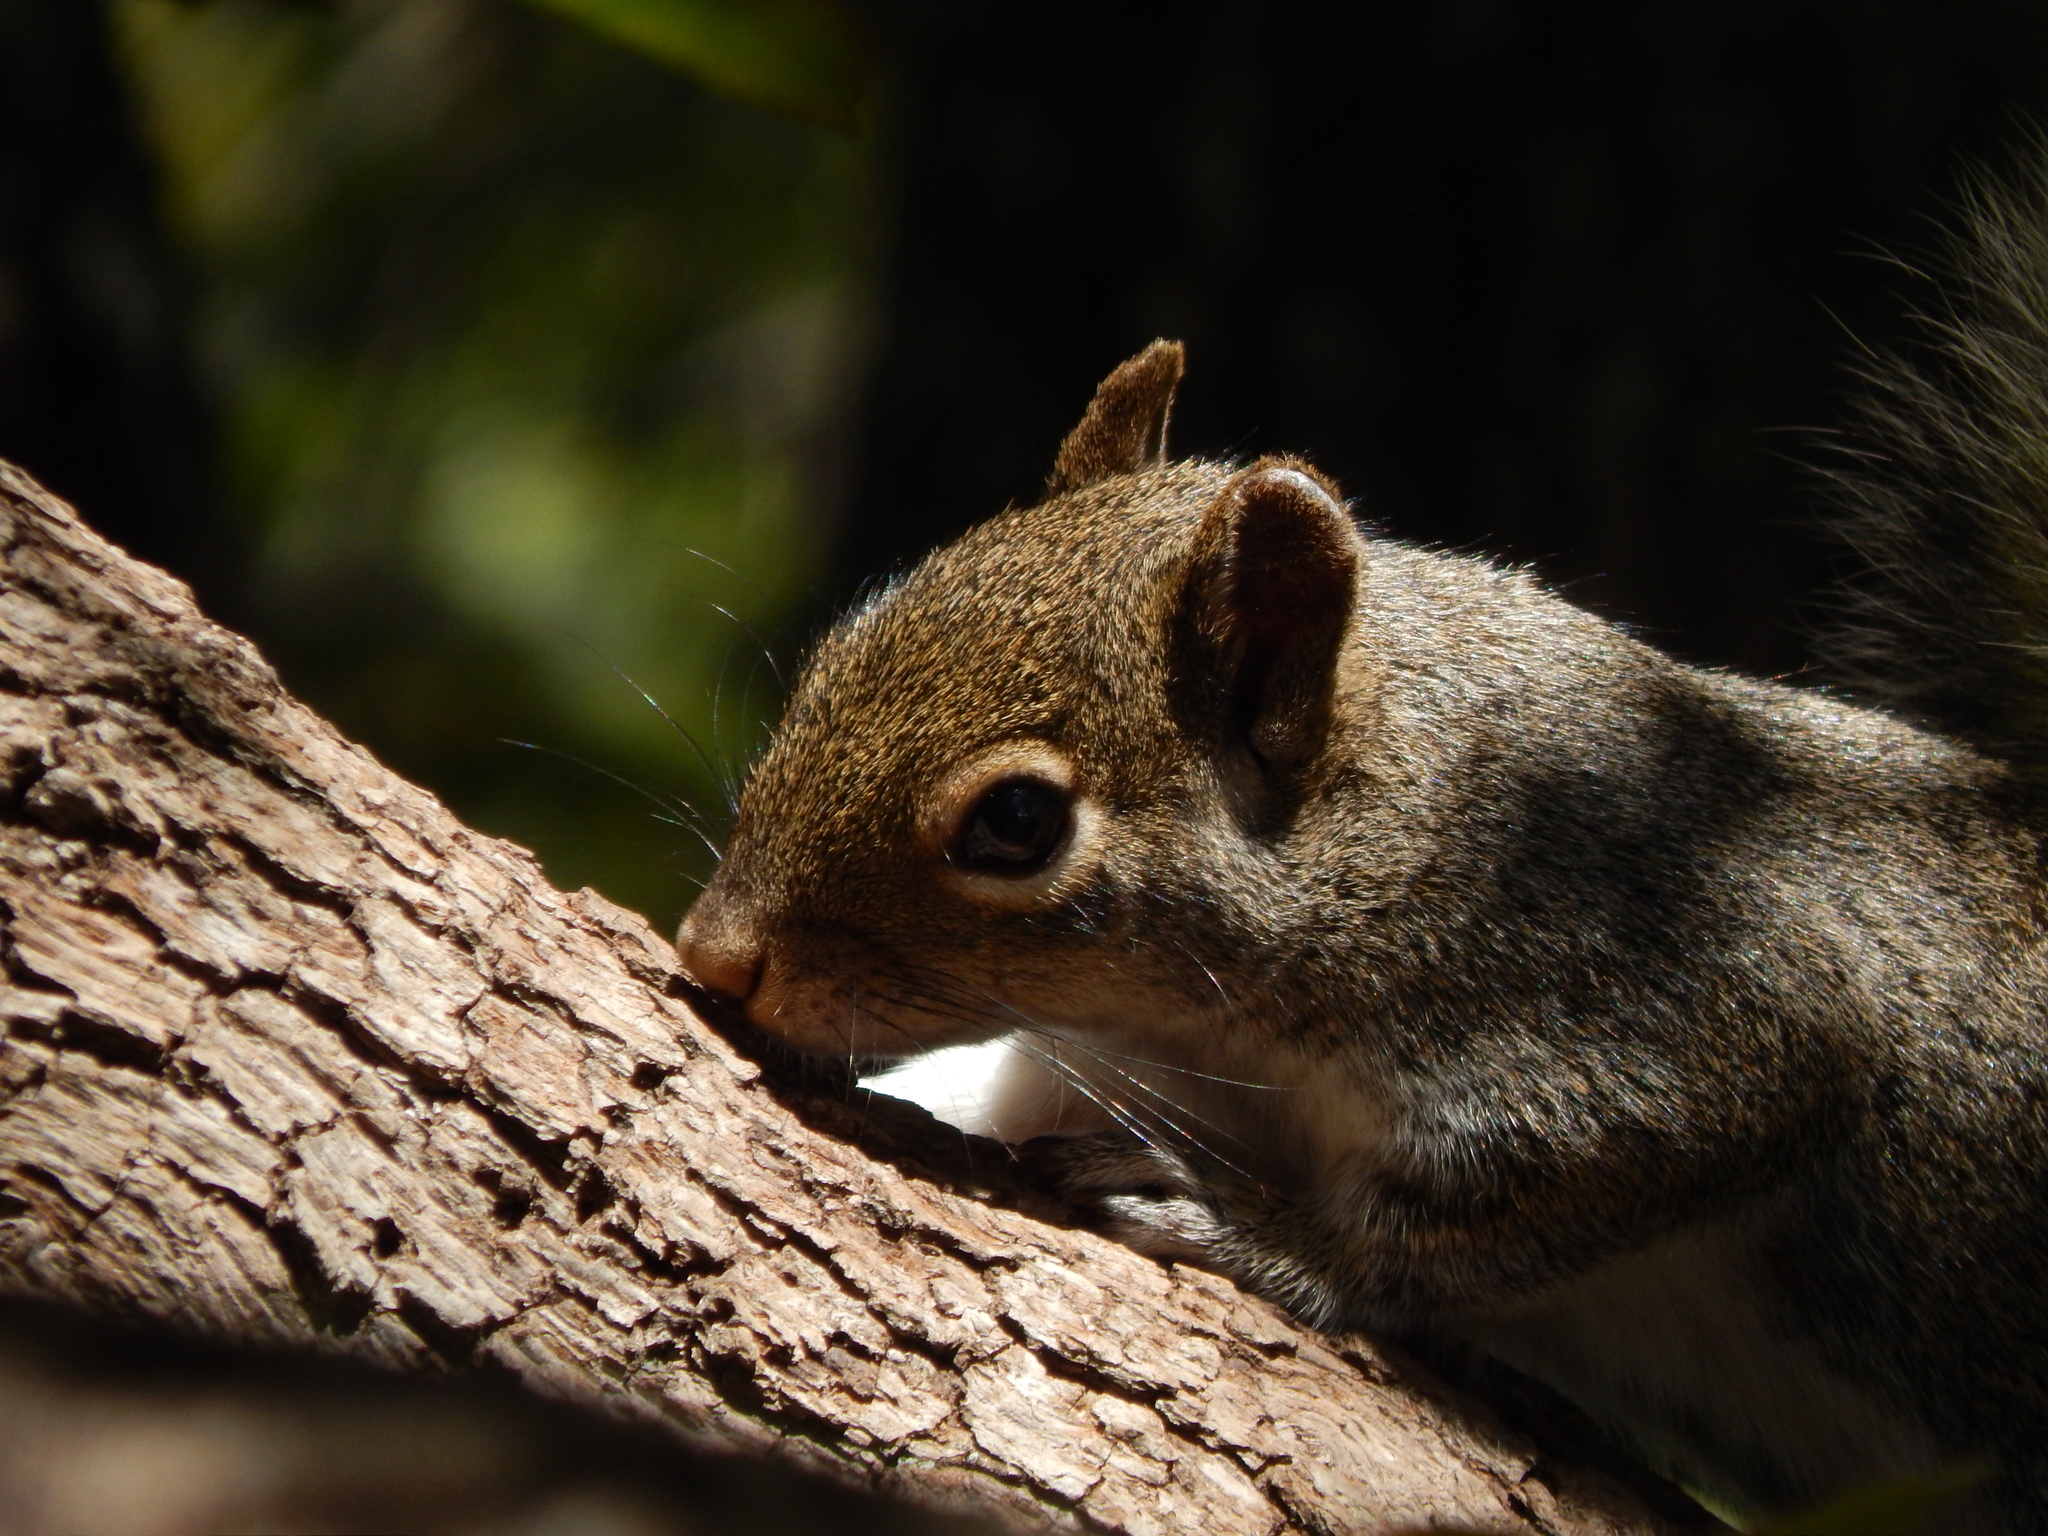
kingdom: Animalia
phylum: Chordata
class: Mammalia
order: Rodentia
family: Sciuridae
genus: Sciurus
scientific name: Sciurus alleni
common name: Allen's squirrel
